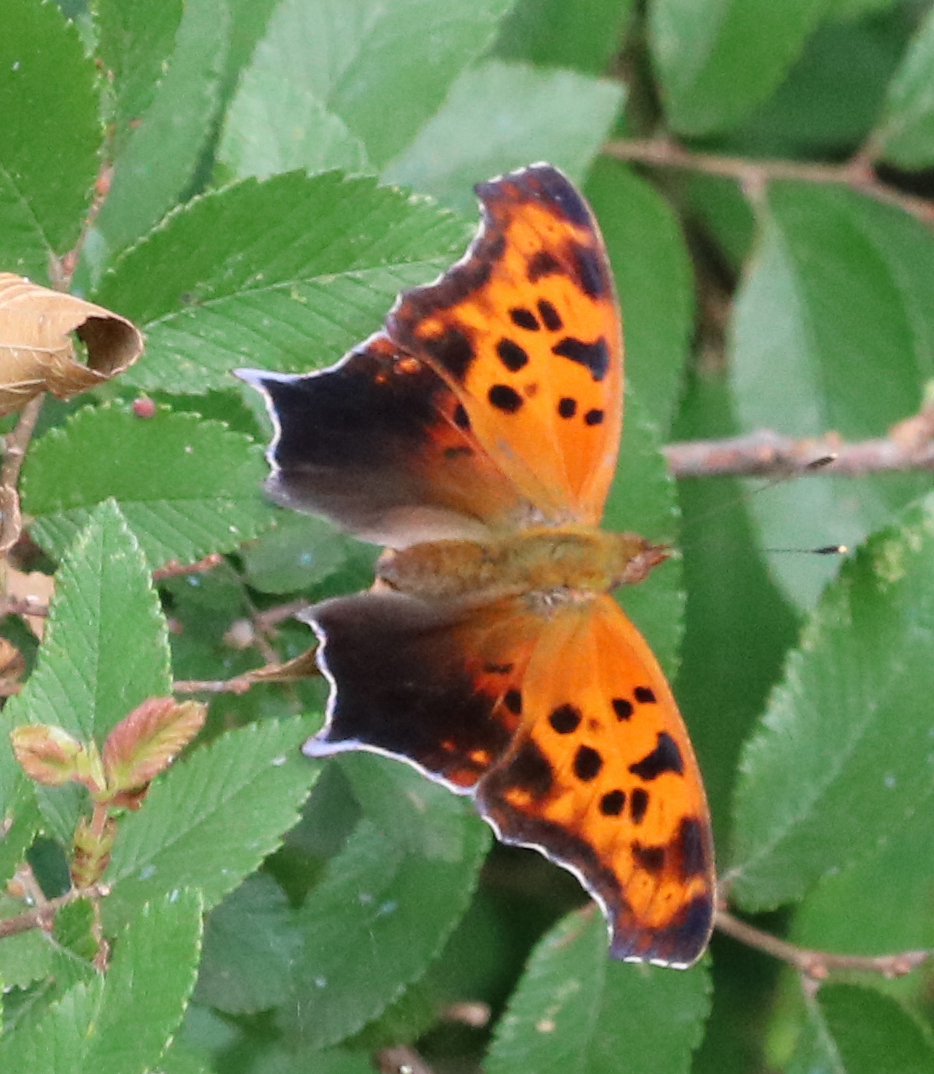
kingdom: Animalia
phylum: Arthropoda
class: Insecta
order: Lepidoptera
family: Nymphalidae
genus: Polygonia
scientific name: Polygonia interrogationis
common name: Question mark
